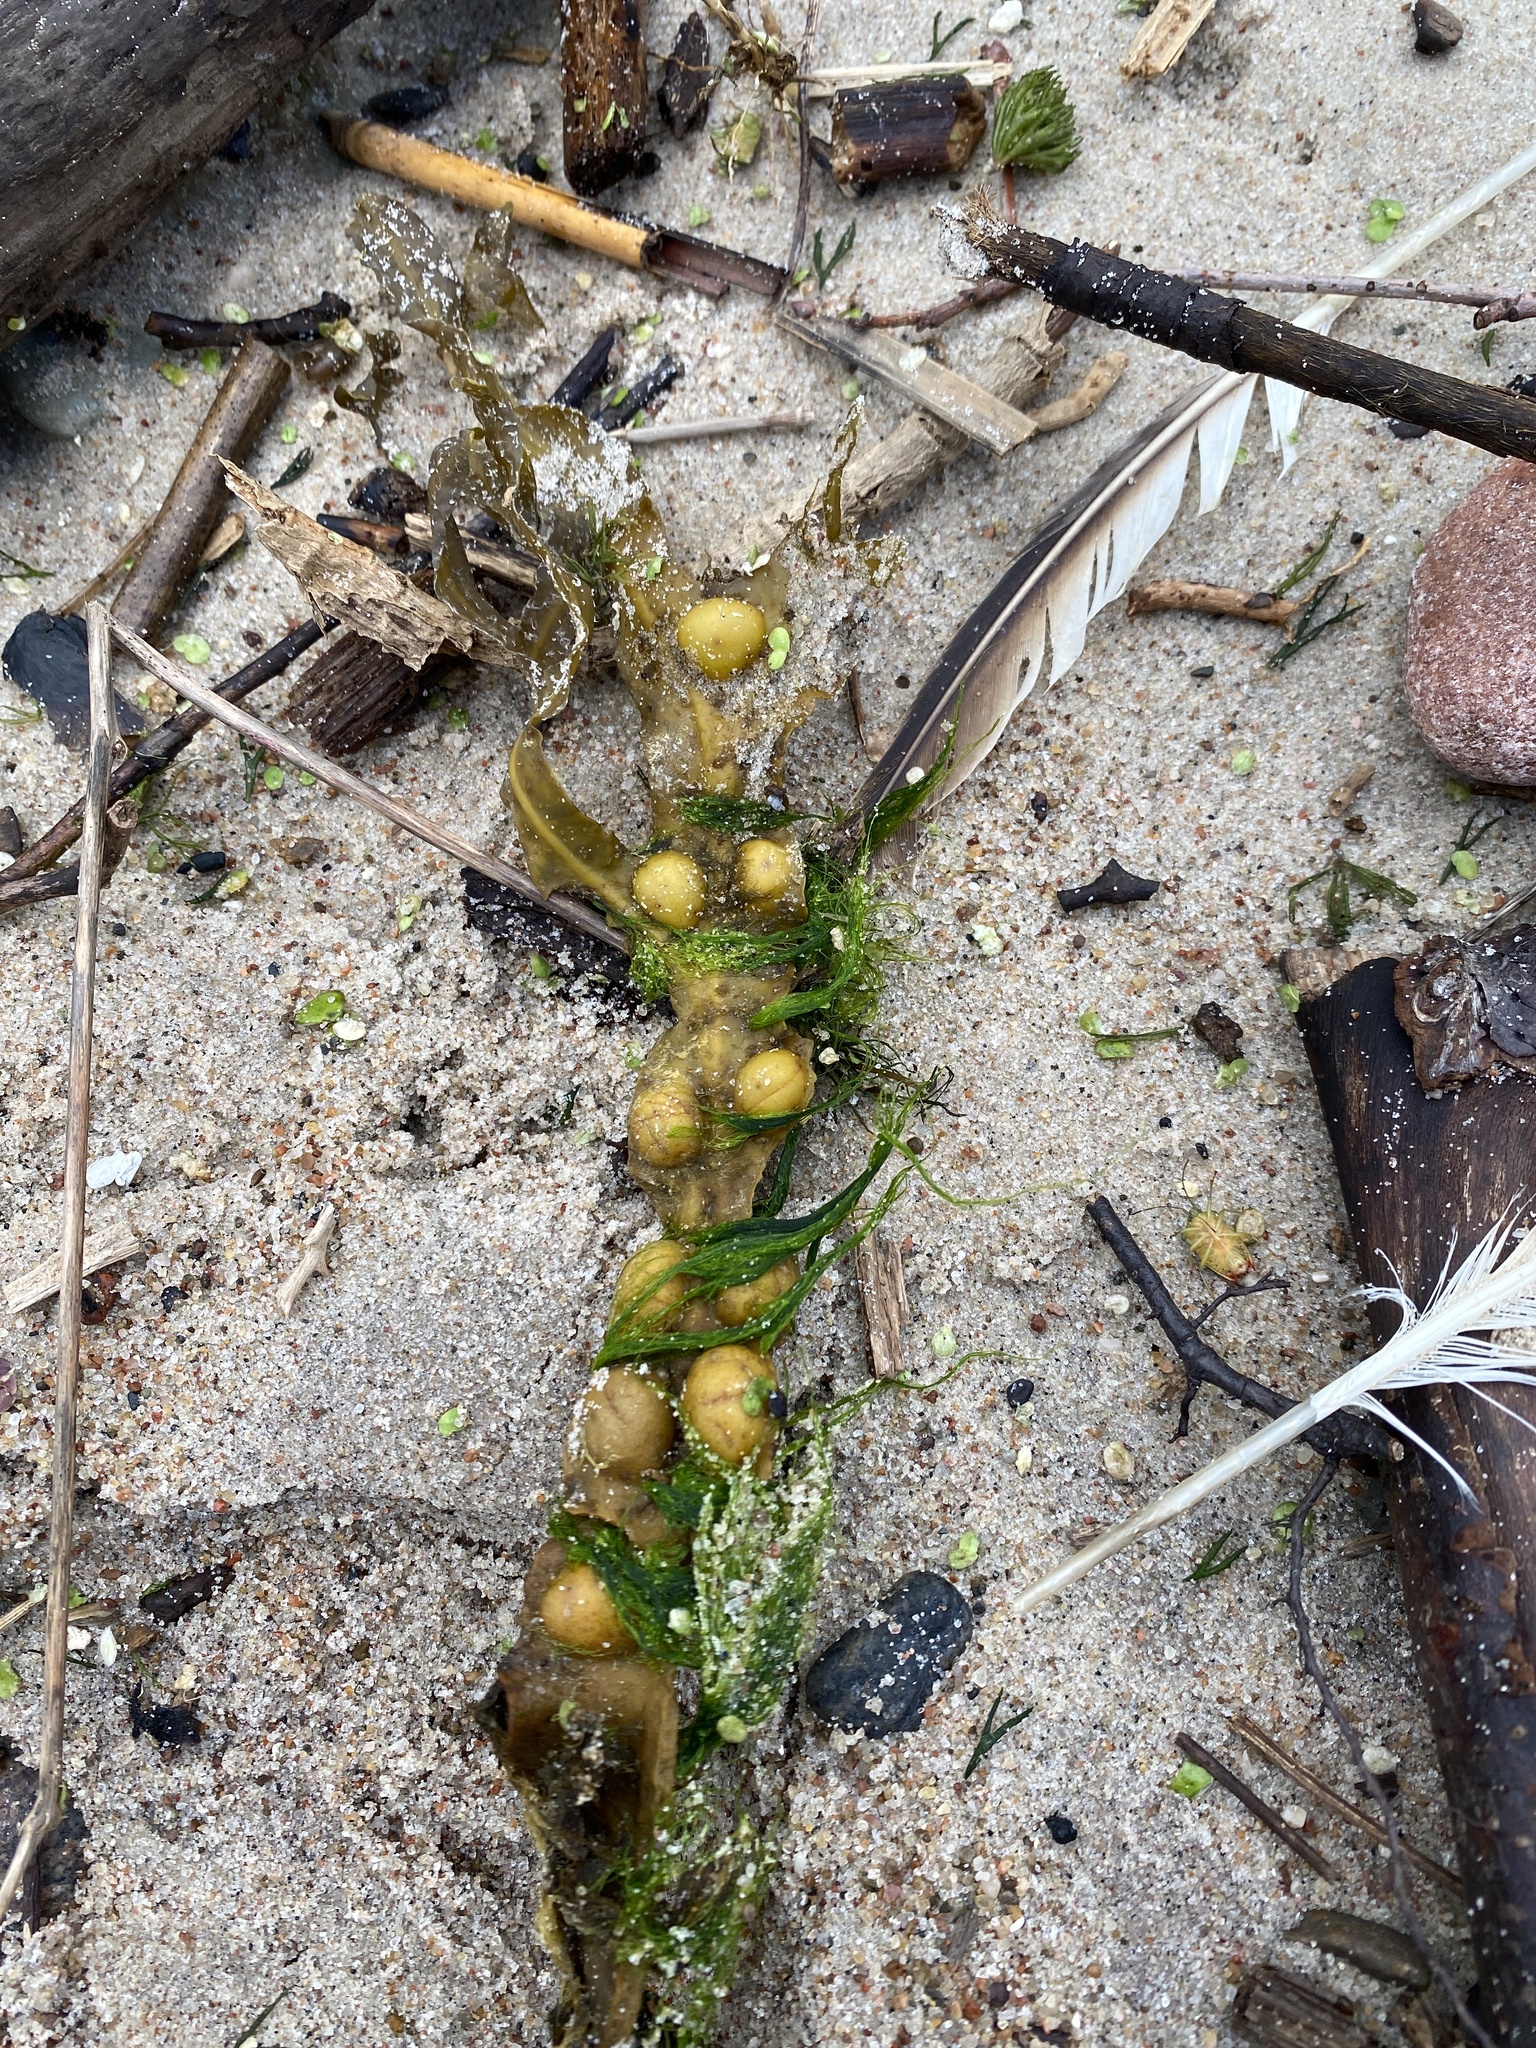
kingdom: Chromista
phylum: Ochrophyta
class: Phaeophyceae
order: Fucales
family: Fucaceae
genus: Fucus
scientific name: Fucus vesiculosus
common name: Bladder wrack
